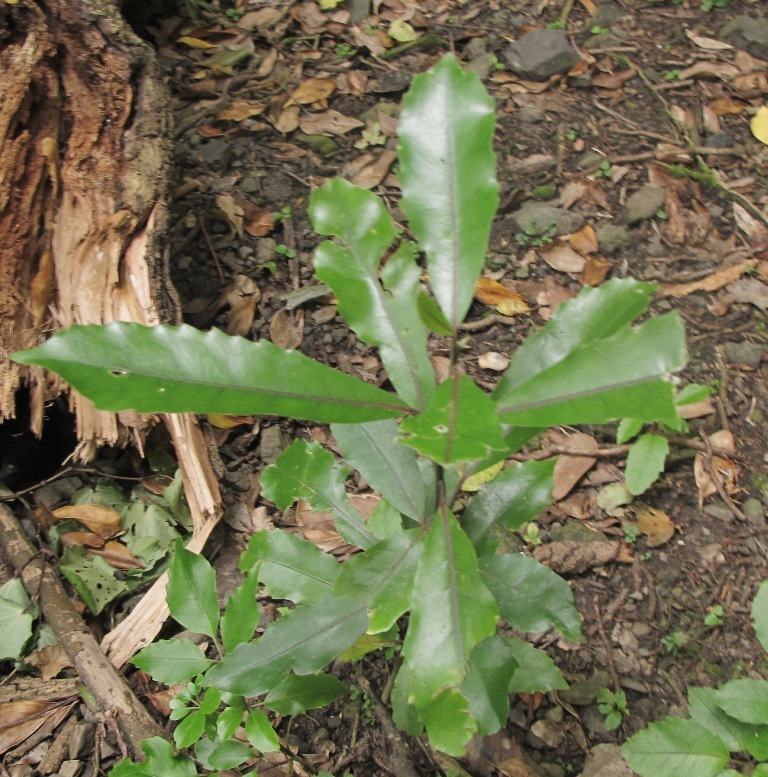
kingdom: Plantae
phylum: Tracheophyta
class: Magnoliopsida
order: Laurales
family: Monimiaceae
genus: Hedycarya
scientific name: Hedycarya arborea
